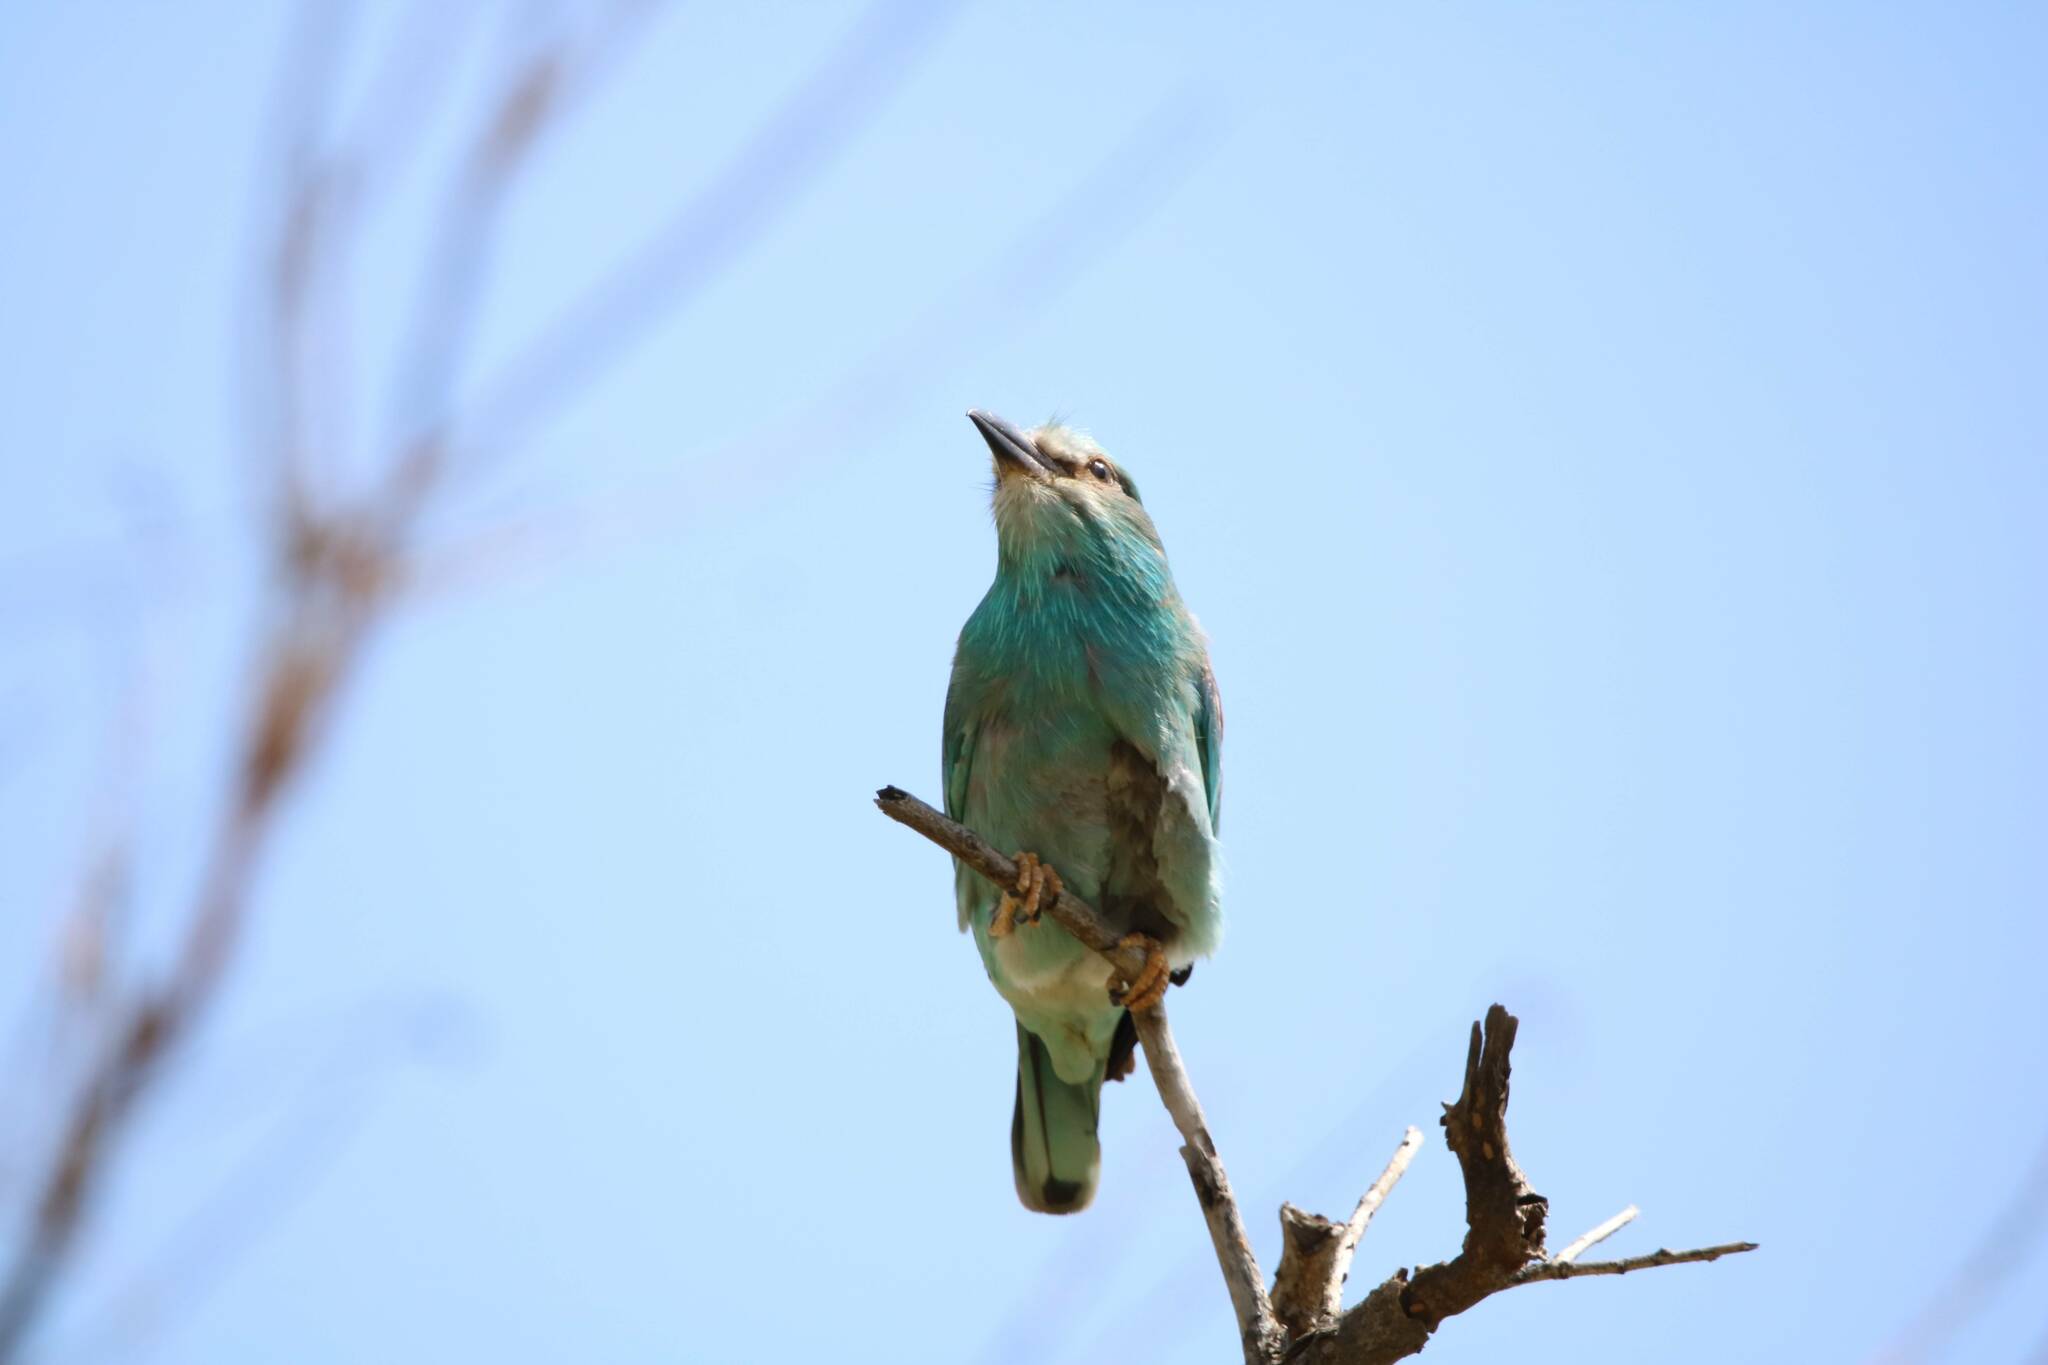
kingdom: Animalia
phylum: Chordata
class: Aves
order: Coraciiformes
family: Coraciidae
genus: Coracias
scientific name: Coracias garrulus
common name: European roller
